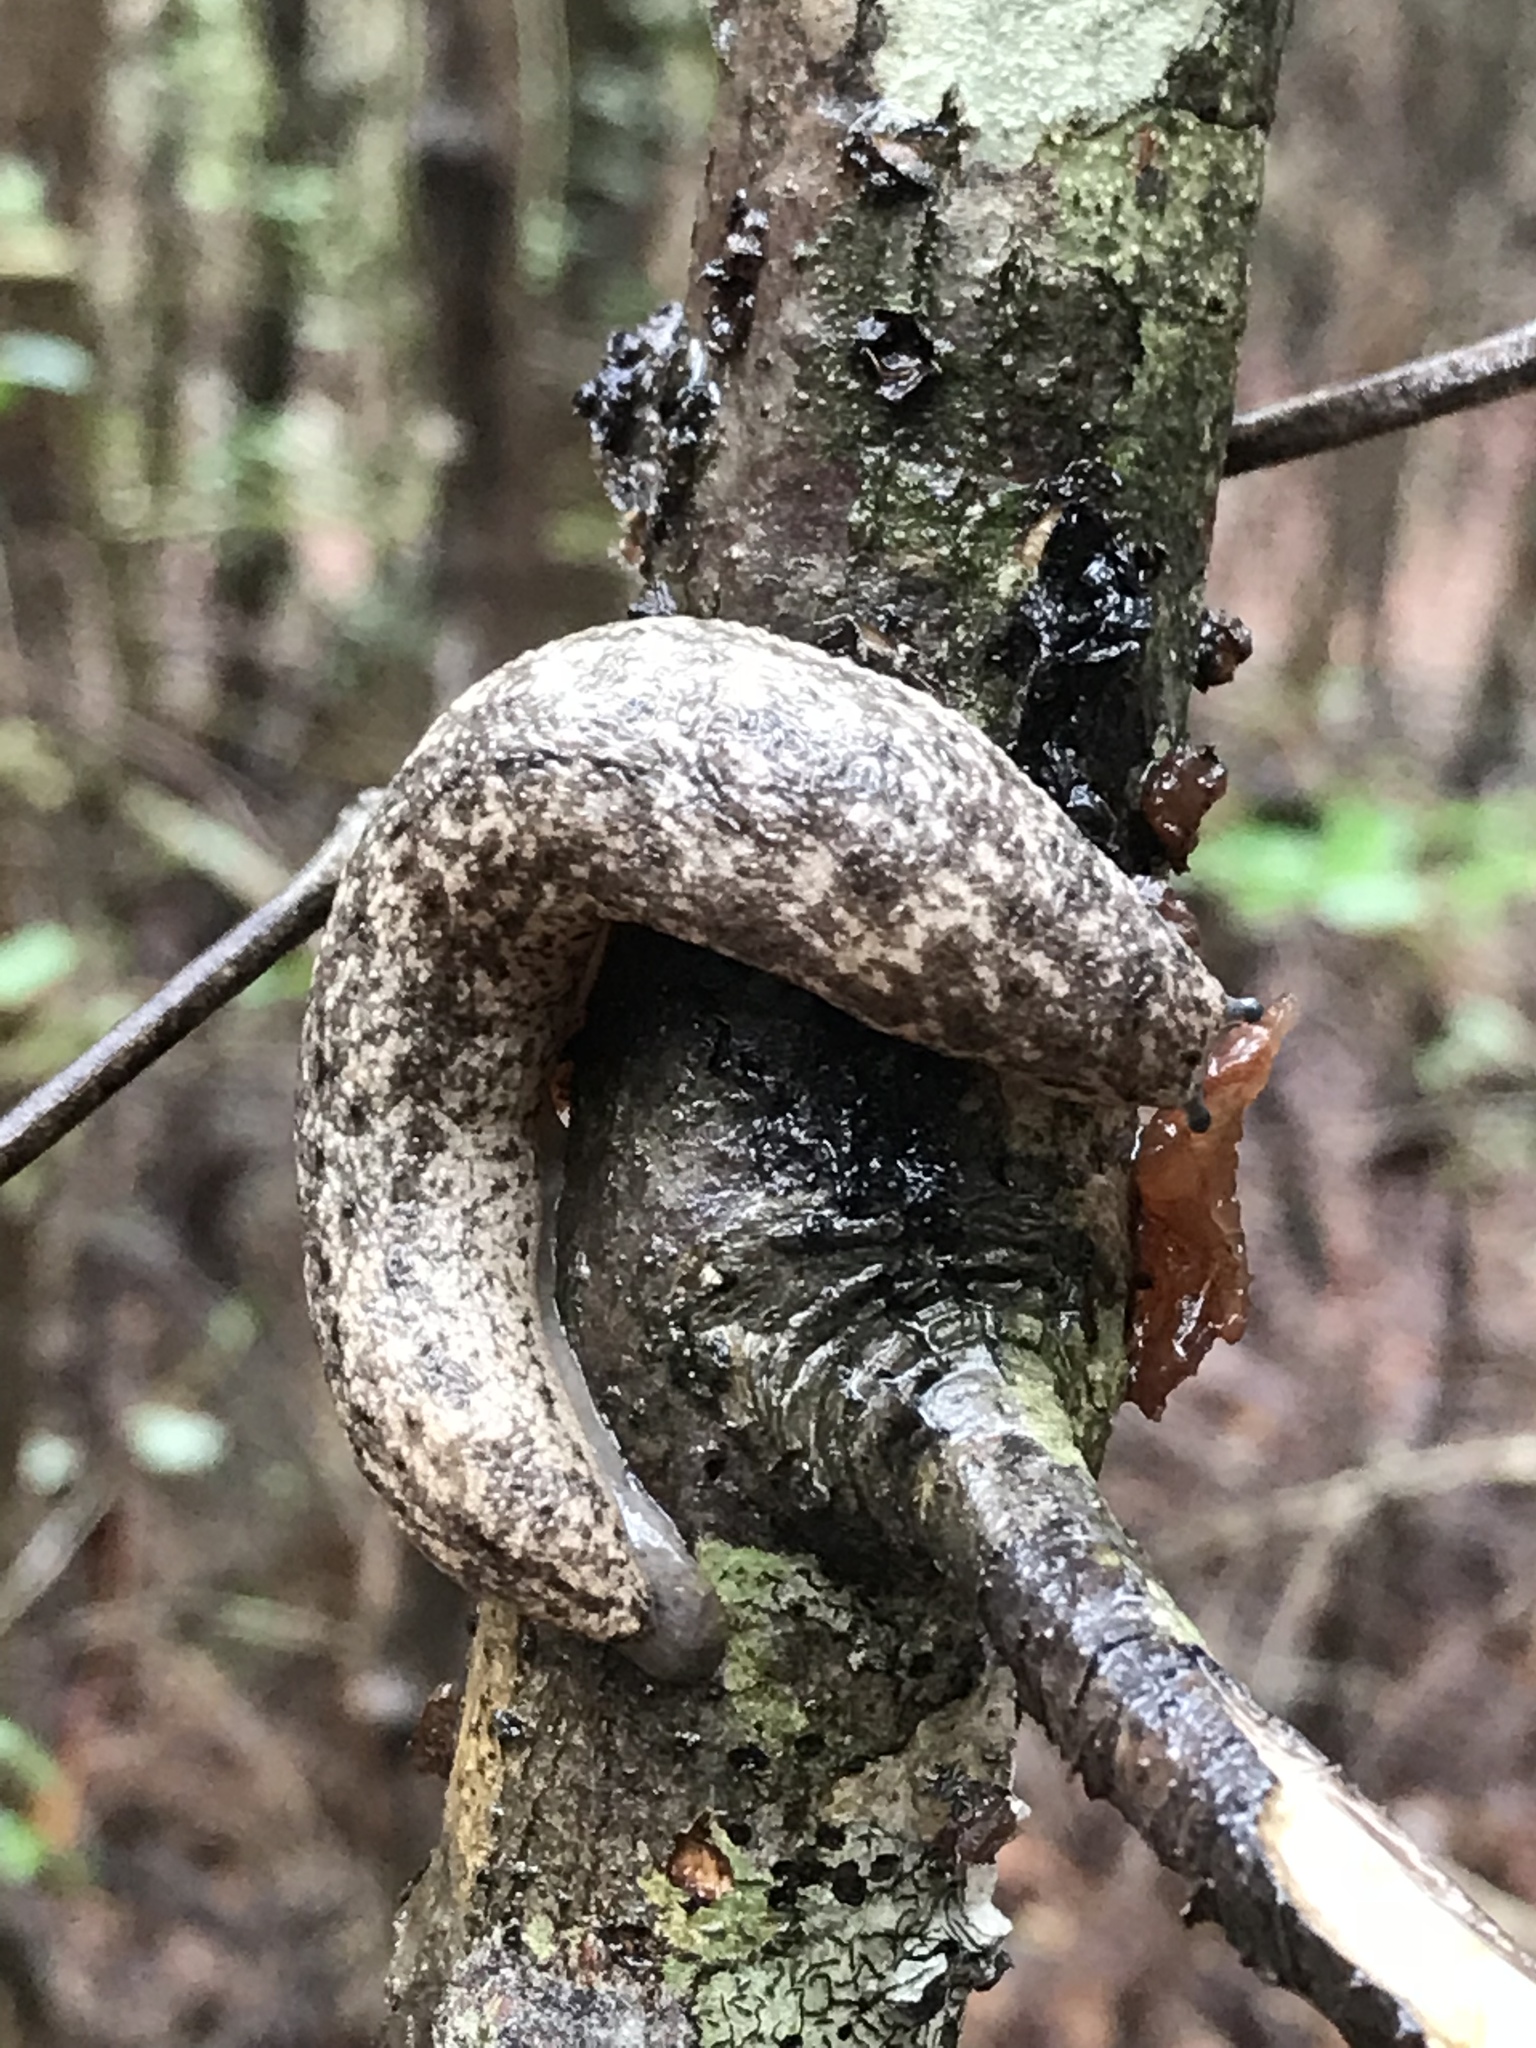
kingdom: Animalia
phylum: Mollusca
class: Gastropoda
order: Stylommatophora
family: Philomycidae
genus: Philomycus
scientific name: Philomycus carolinianus
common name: Carolina mantleslug
